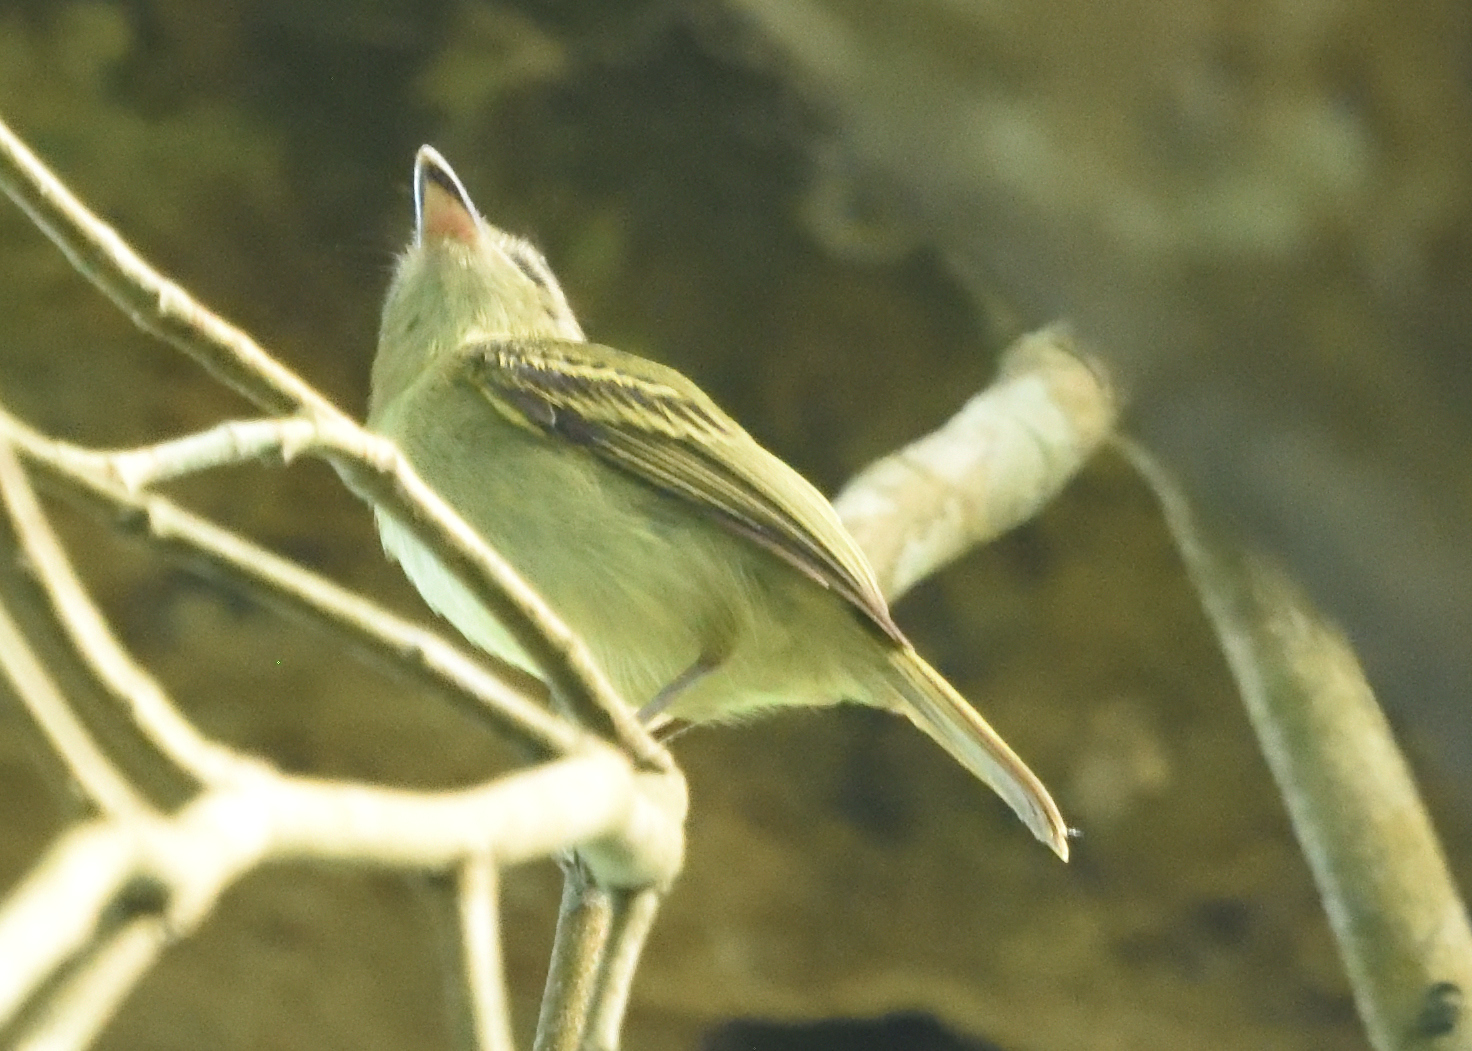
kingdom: Animalia
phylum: Chordata
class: Aves
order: Passeriformes
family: Tyrannidae
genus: Oncostoma
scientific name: Oncostoma olivaceum
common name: Southern bentbill
